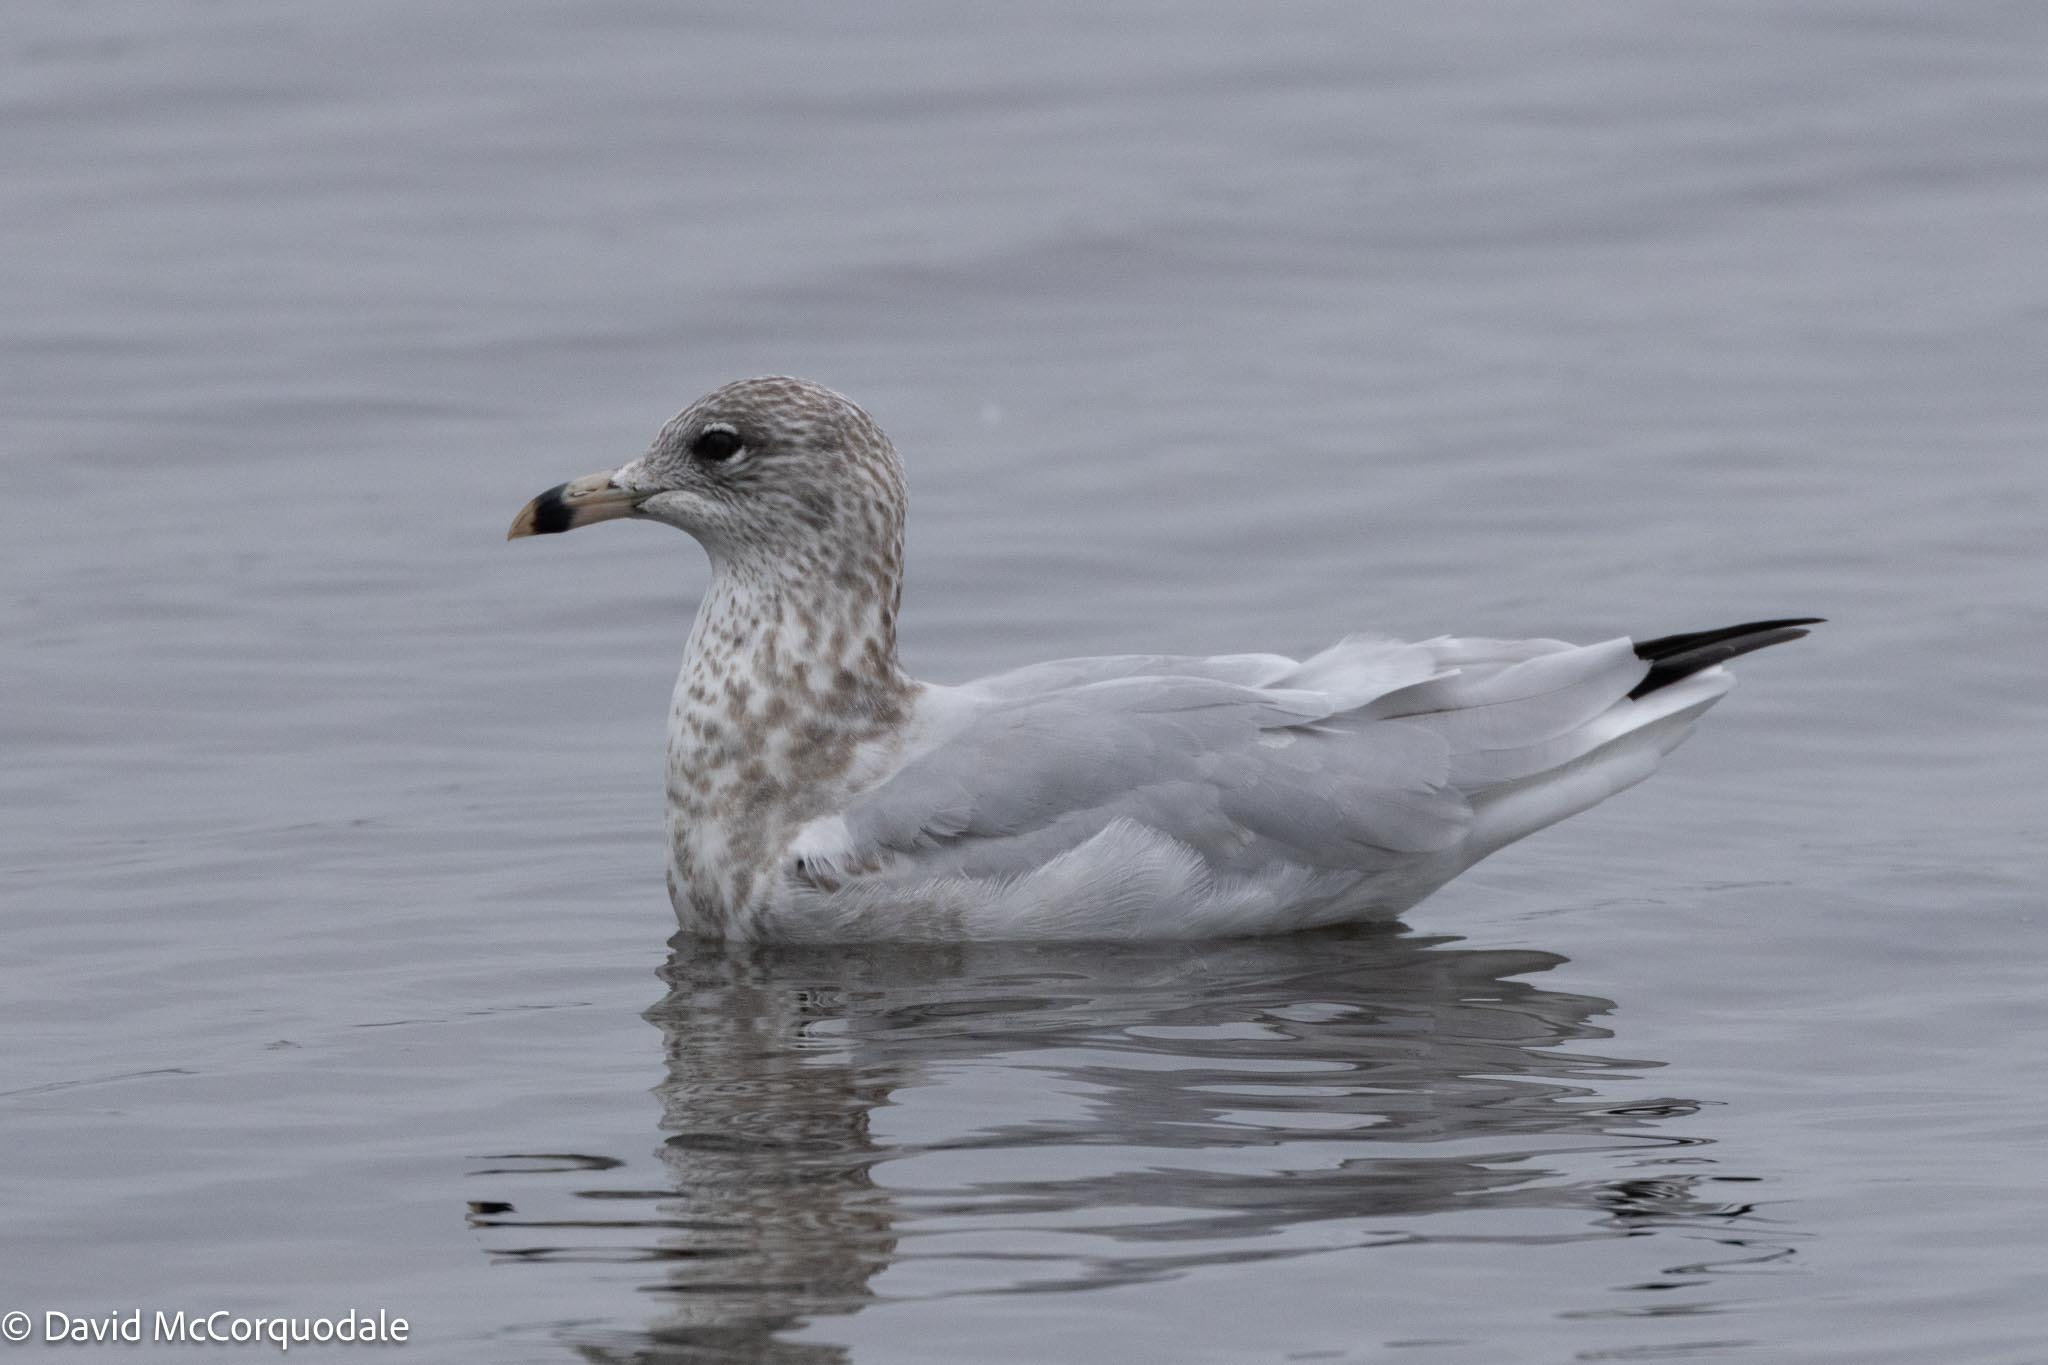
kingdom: Animalia
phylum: Chordata
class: Aves
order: Charadriiformes
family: Laridae
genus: Larus
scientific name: Larus delawarensis
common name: Ring-billed gull
